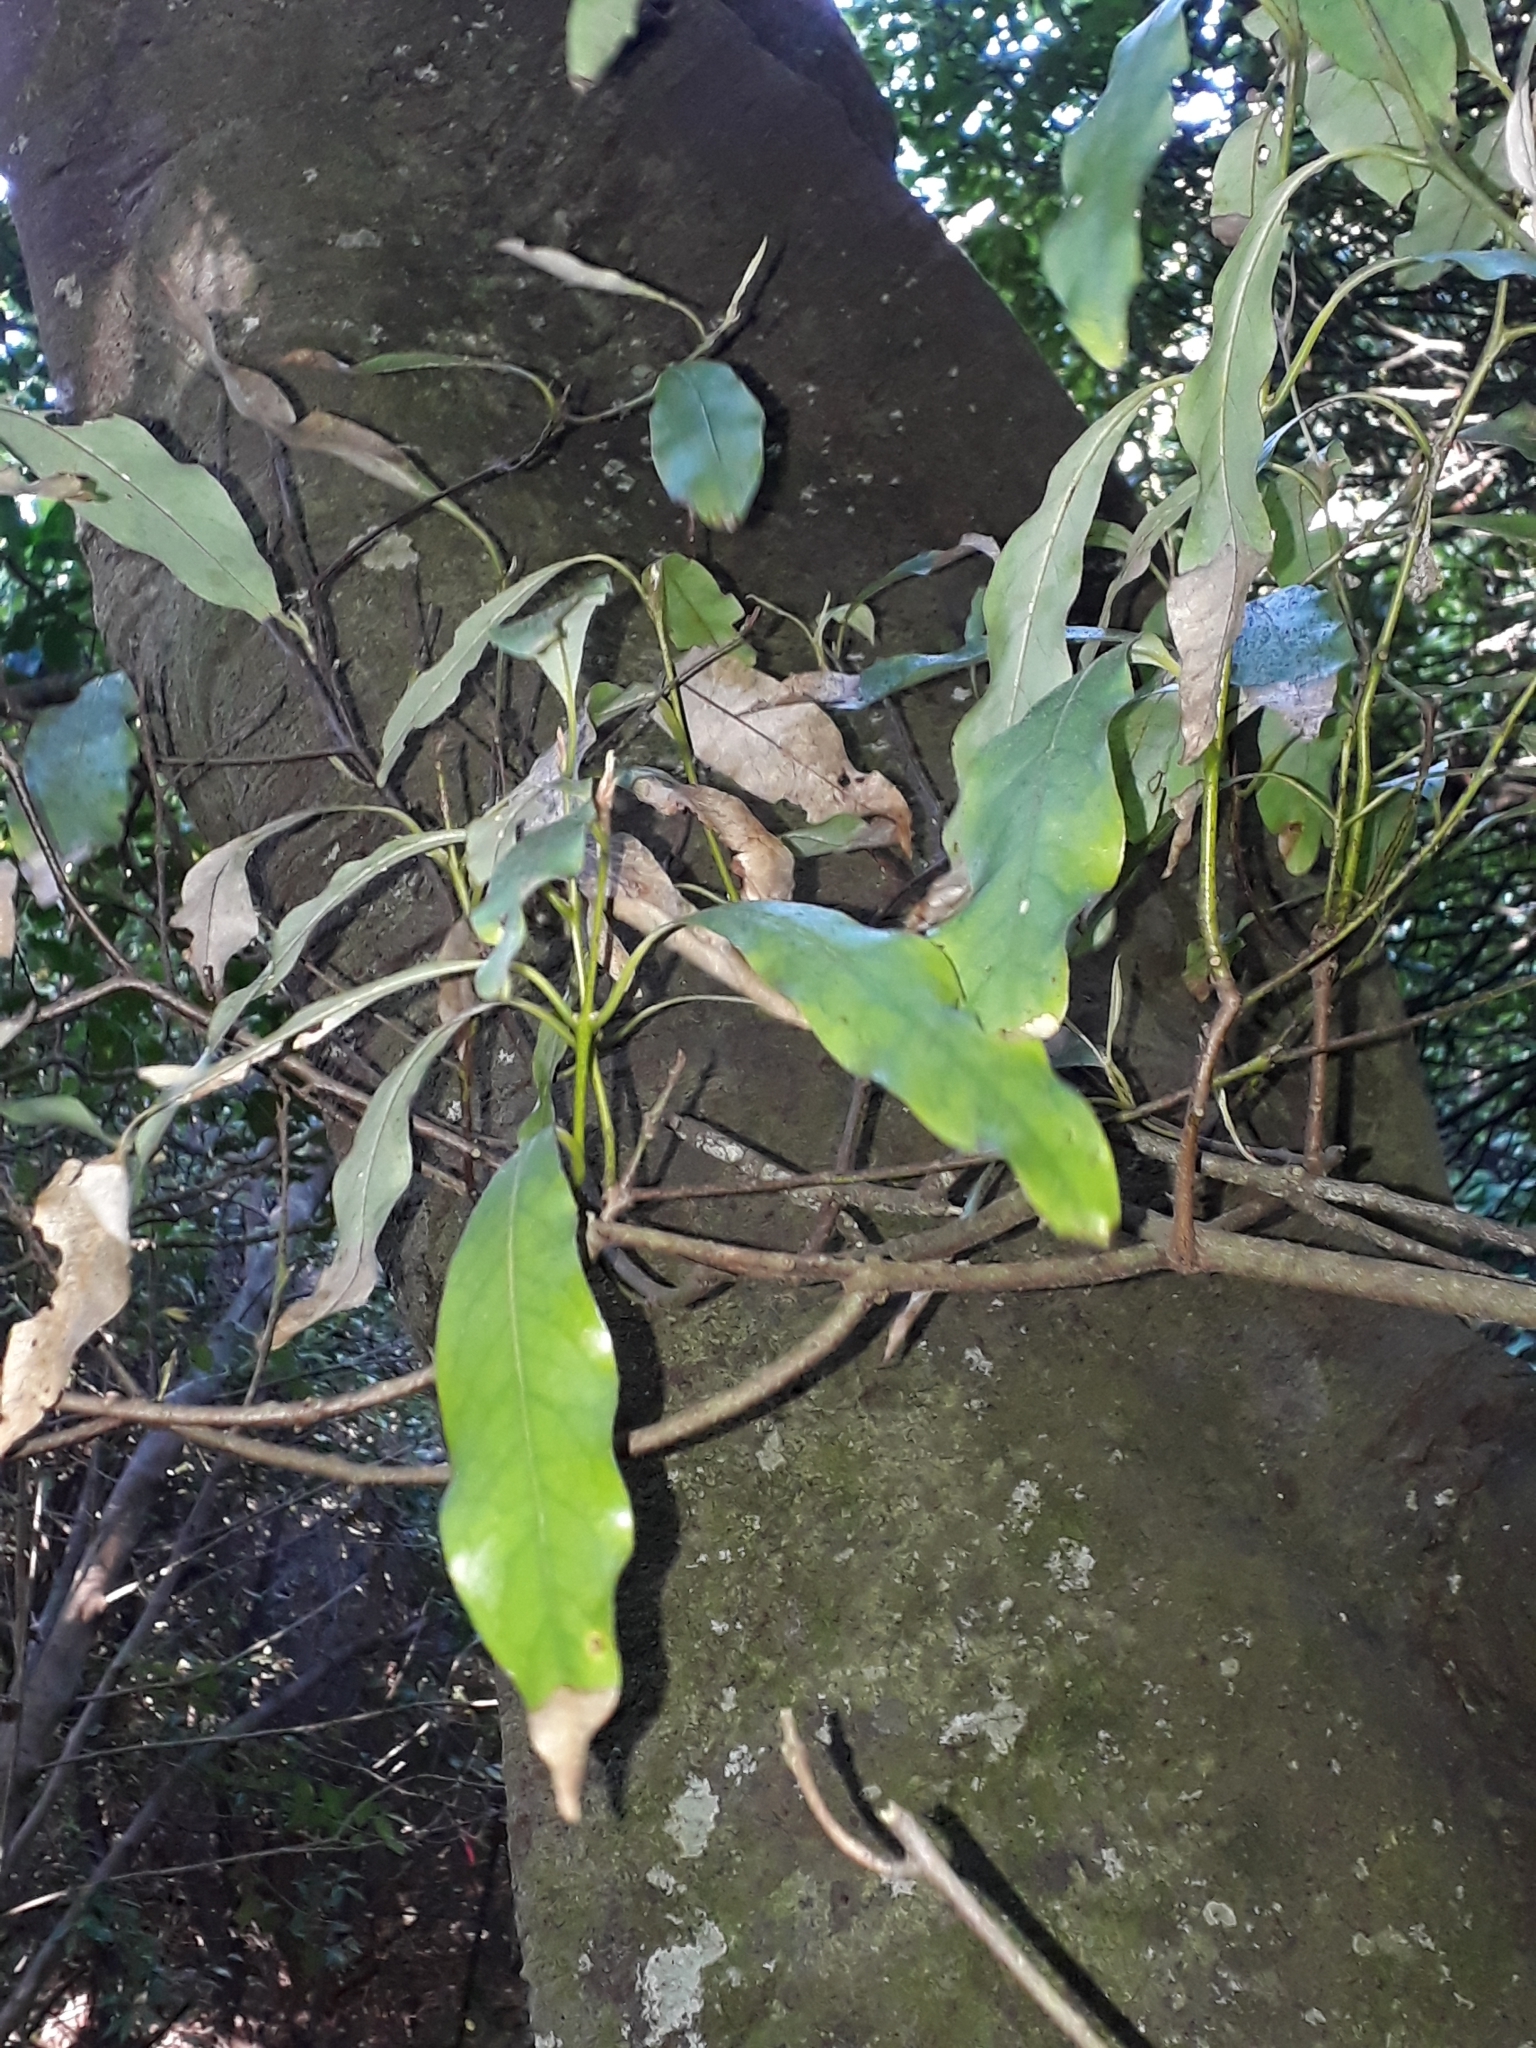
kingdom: Plantae
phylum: Tracheophyta
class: Magnoliopsida
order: Laurales
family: Lauraceae
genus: Beilschmiedia
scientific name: Beilschmiedia tawa
